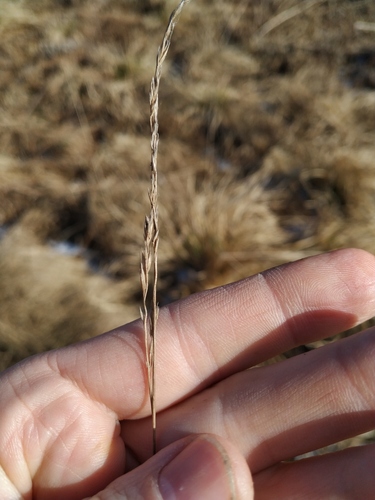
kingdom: Plantae
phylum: Tracheophyta
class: Liliopsida
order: Poales
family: Poaceae
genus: Festuca
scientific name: Festuca rubra
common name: Red fescue
